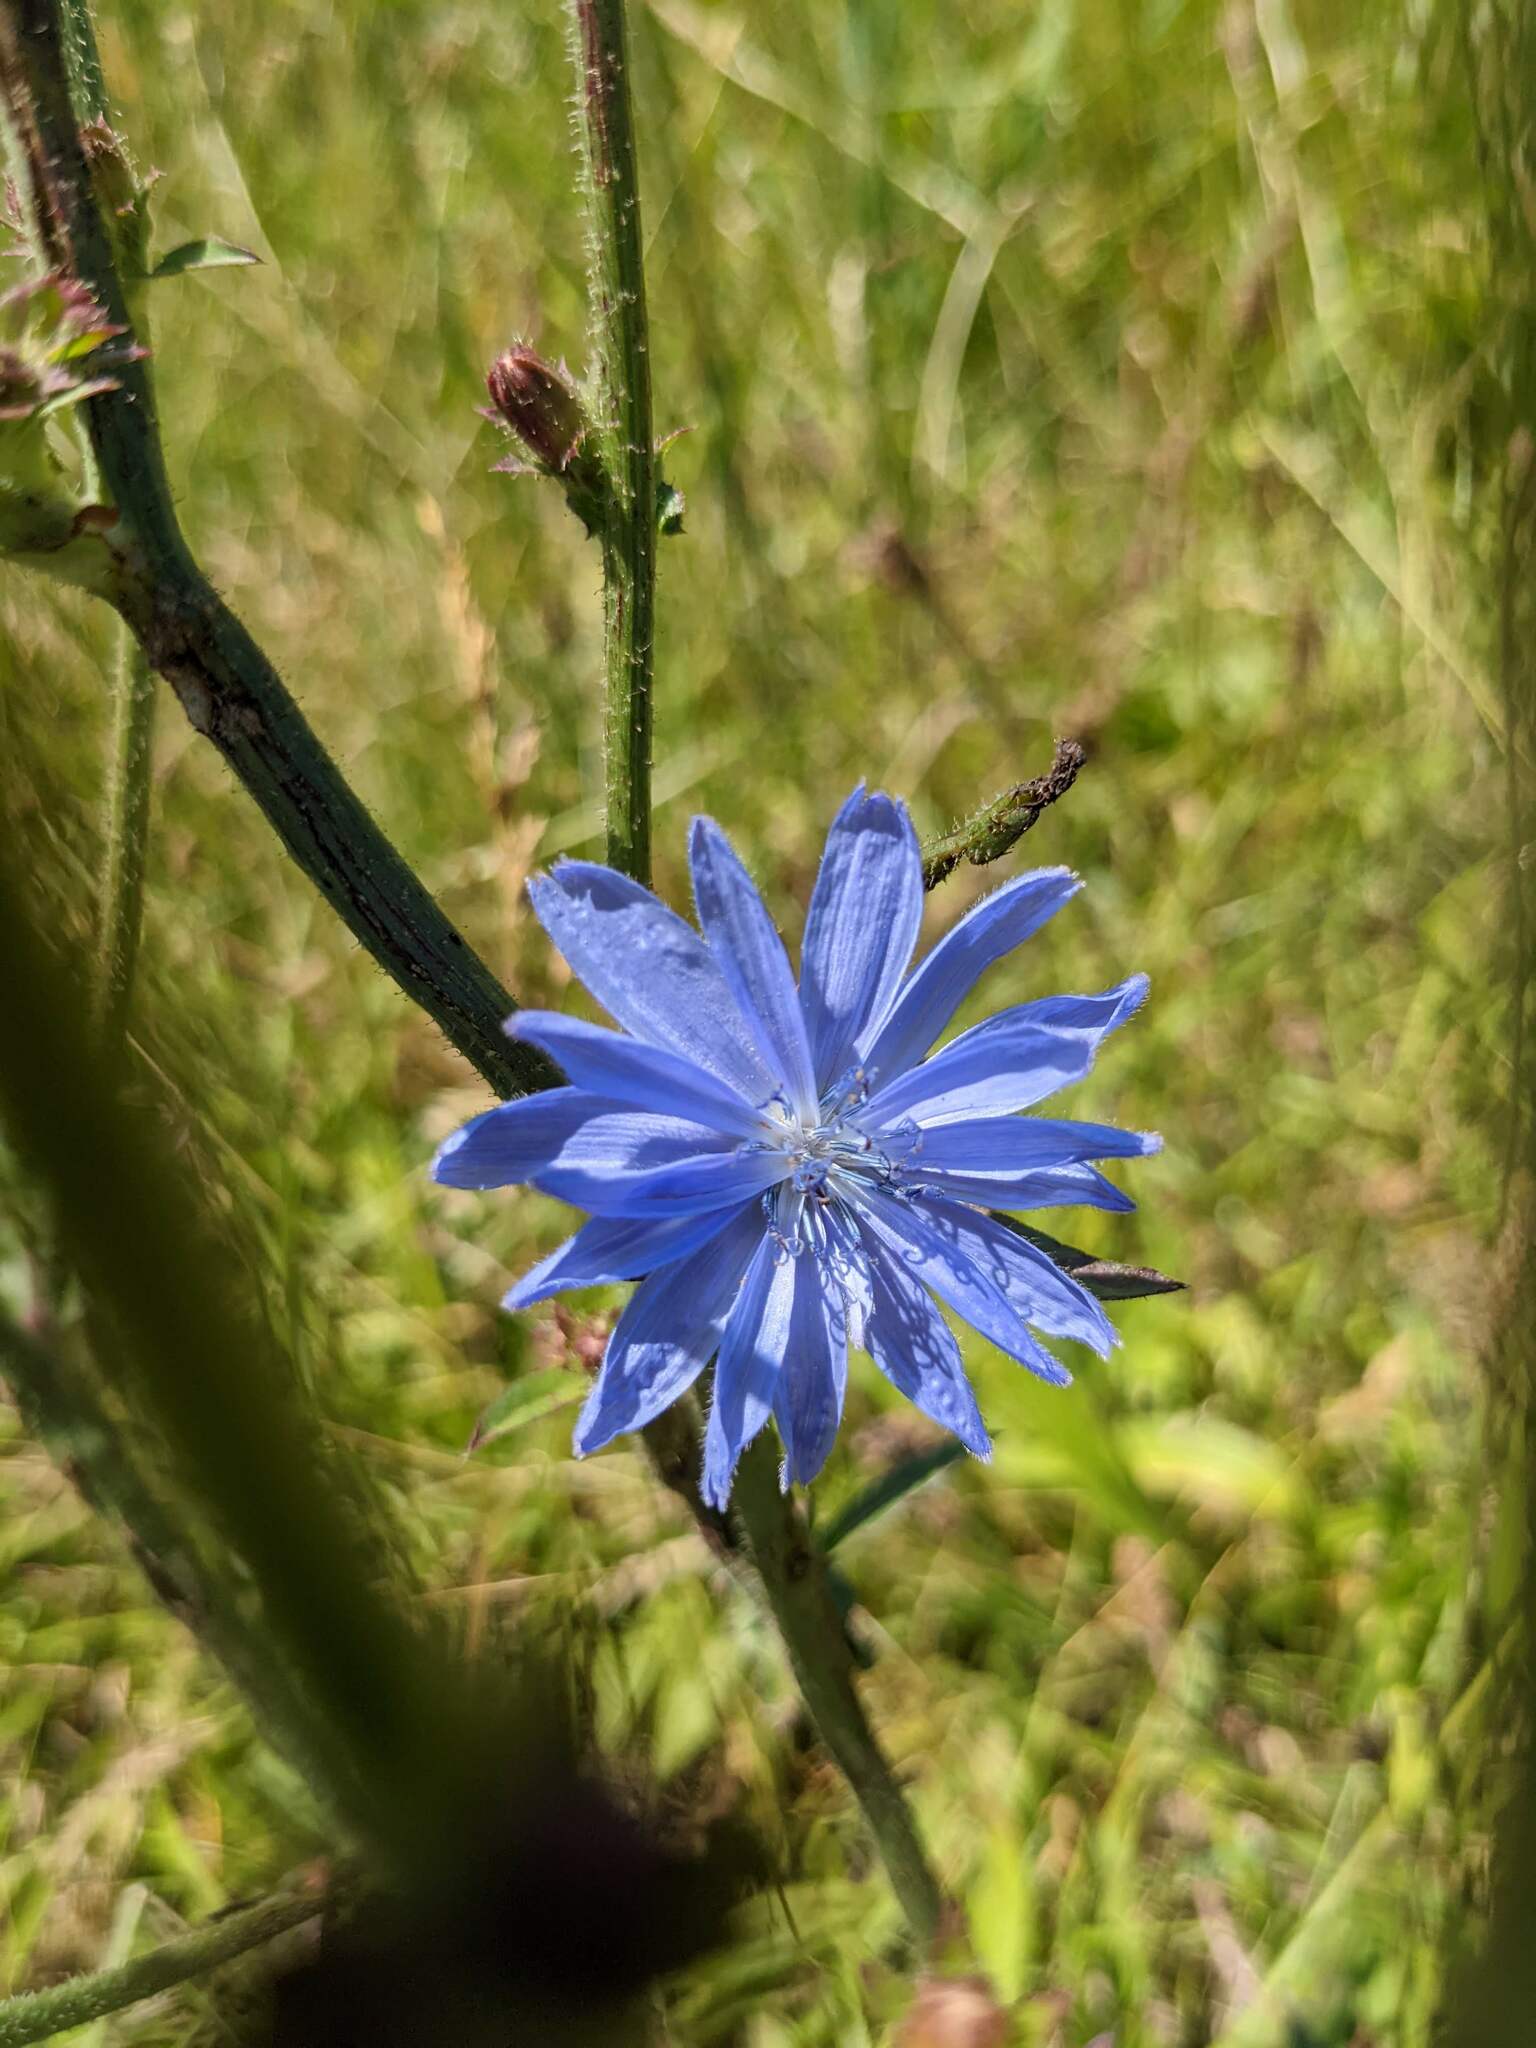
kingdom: Plantae
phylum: Tracheophyta
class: Magnoliopsida
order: Asterales
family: Asteraceae
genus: Cichorium
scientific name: Cichorium intybus
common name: Chicory
